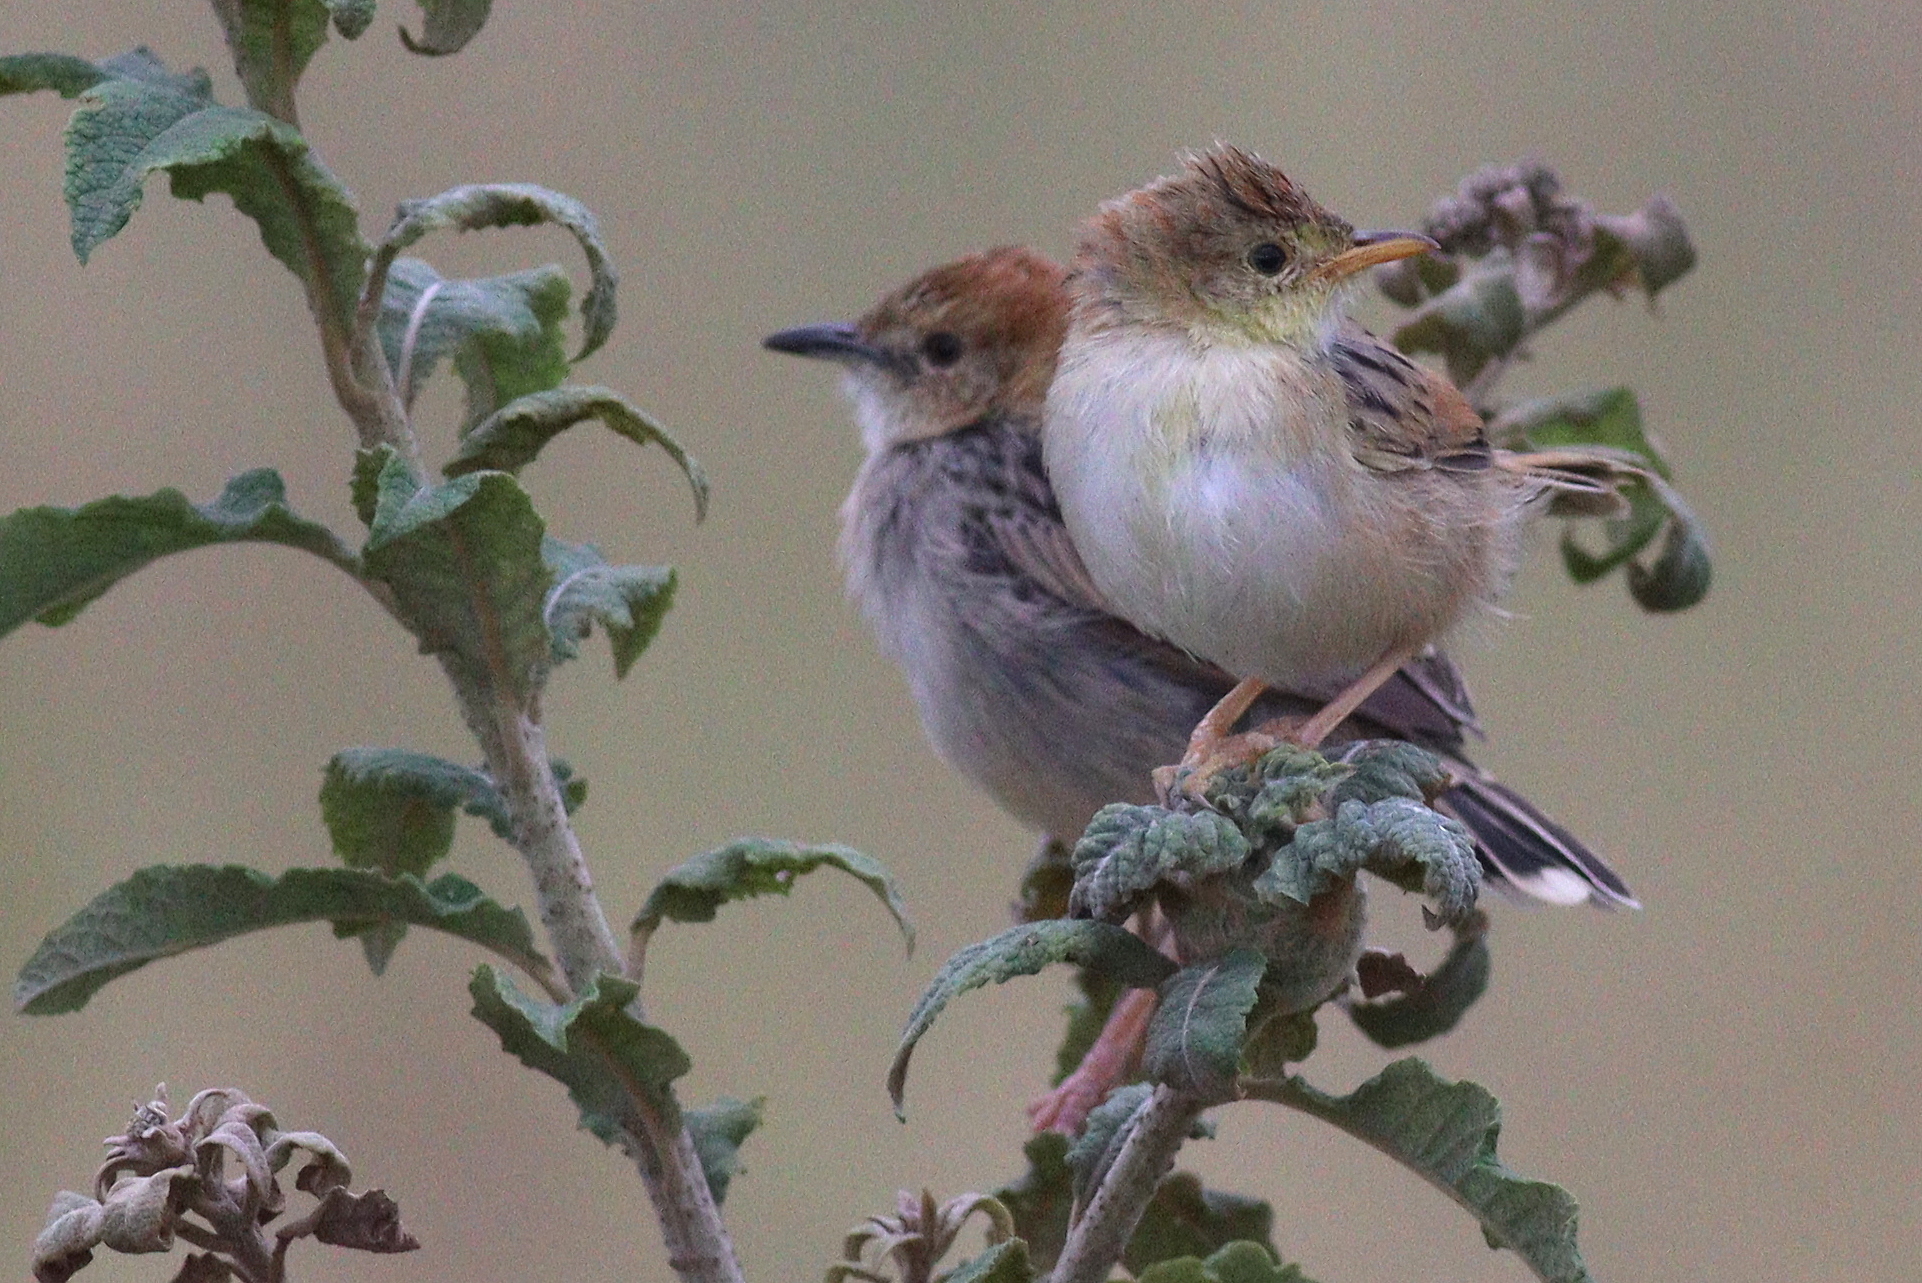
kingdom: Animalia
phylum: Chordata
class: Aves
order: Passeriformes
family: Cisticolidae
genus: Cisticola
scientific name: Cisticola robustus
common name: Stout cisticola
